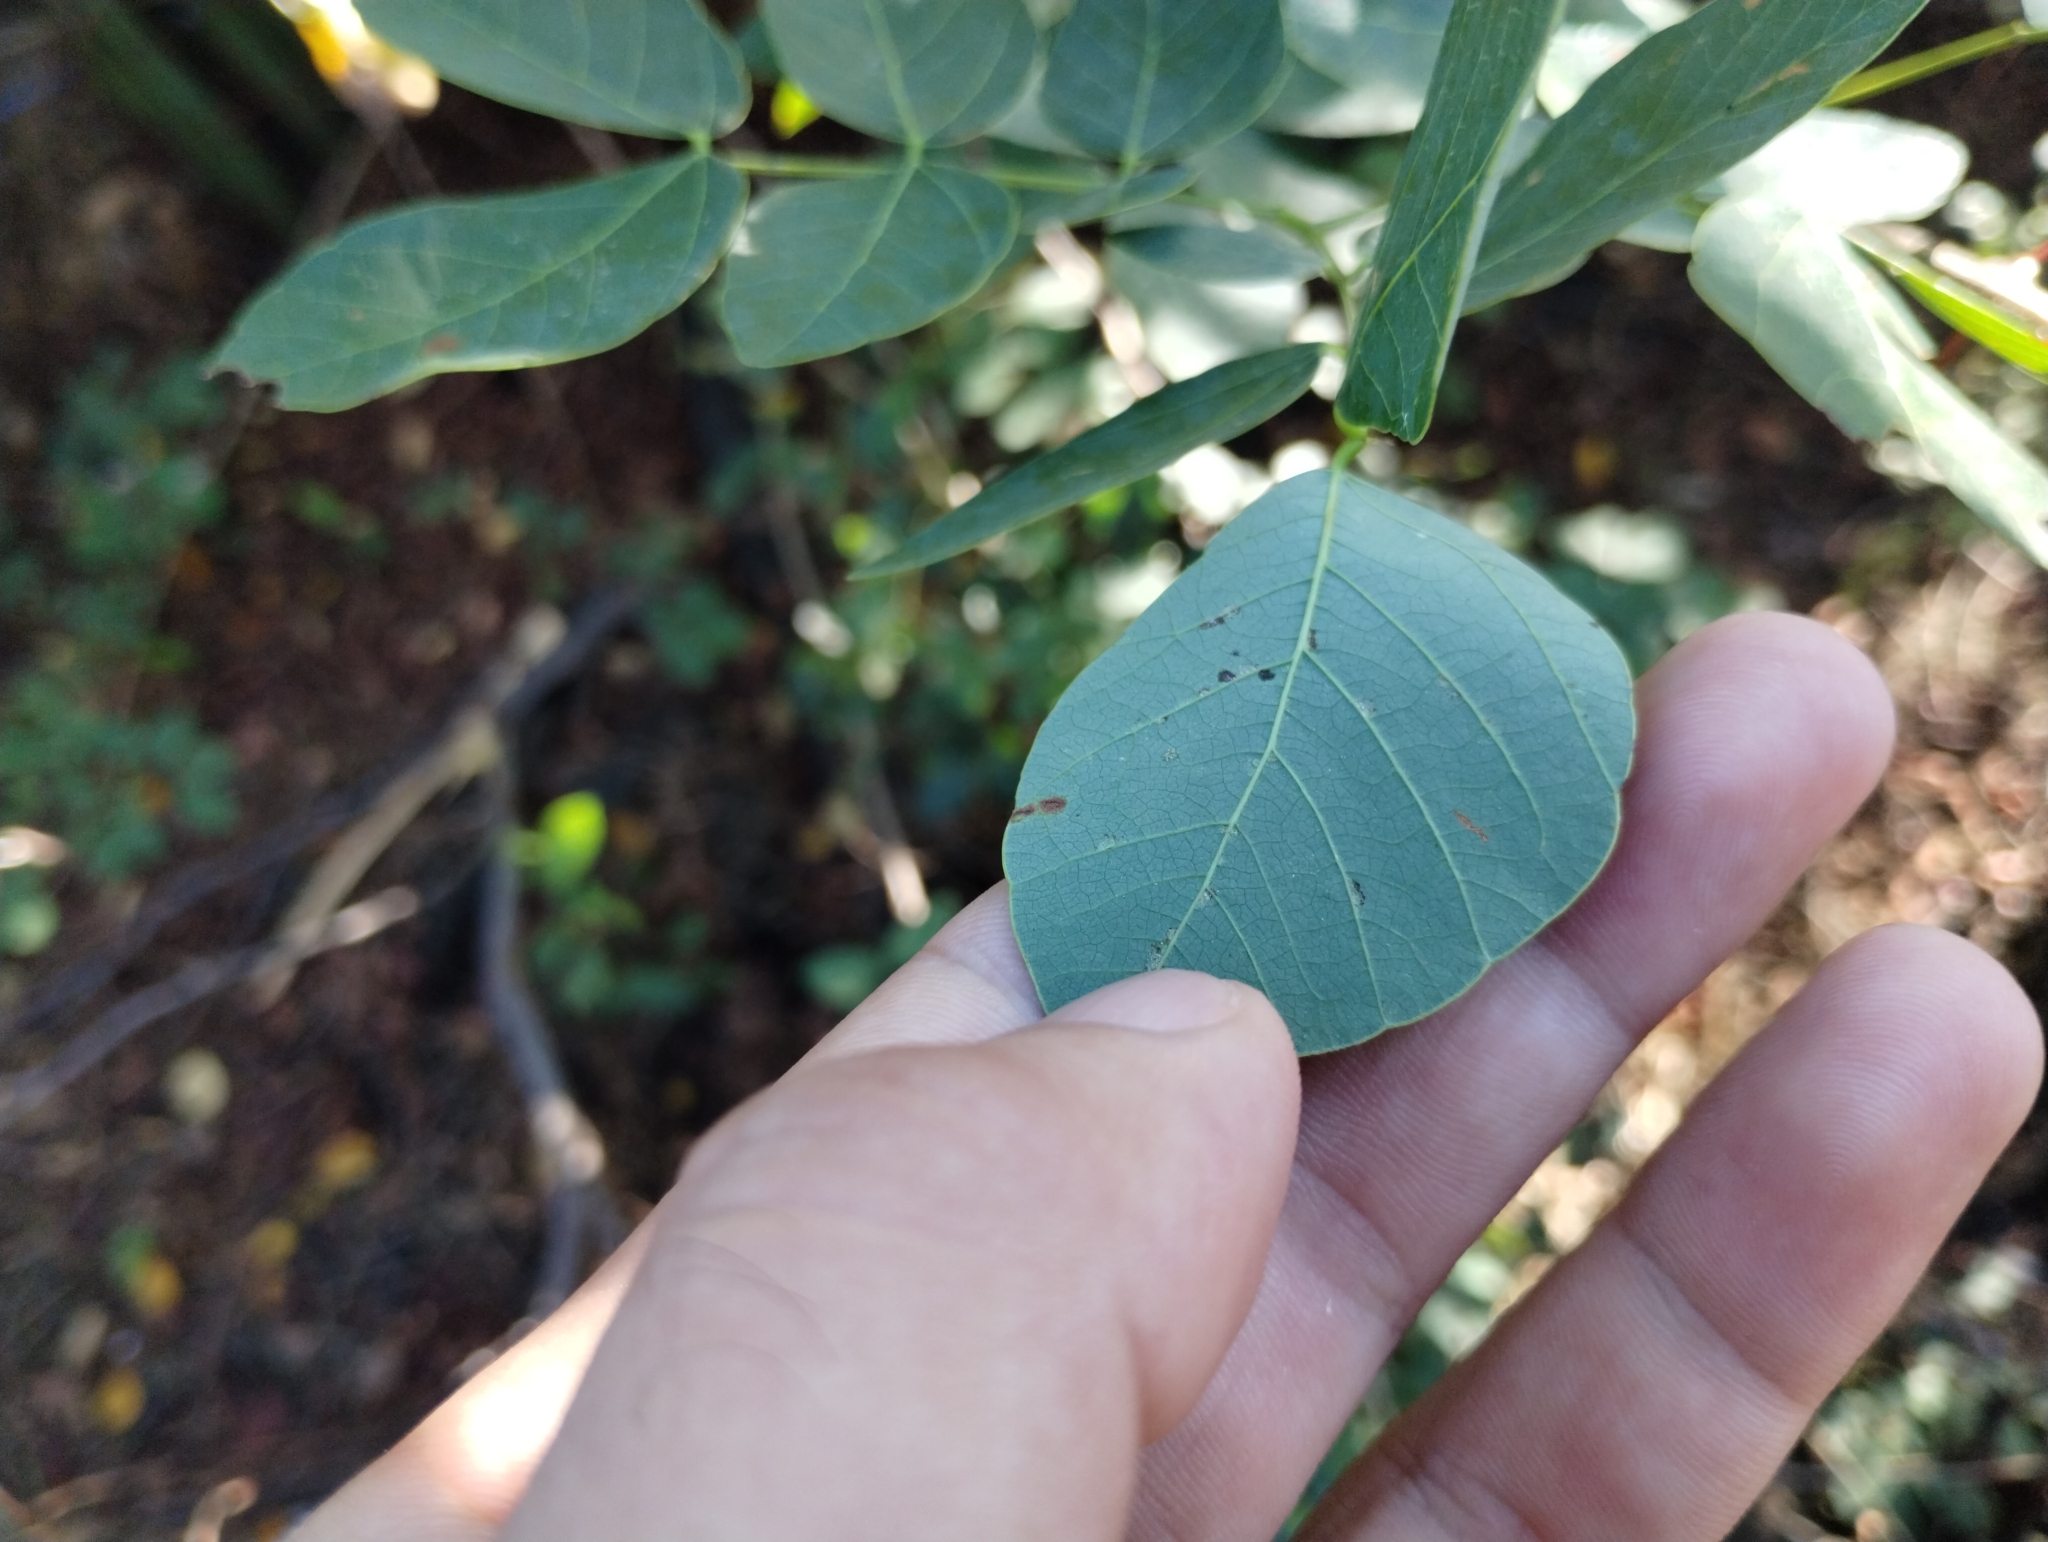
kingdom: Plantae
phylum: Tracheophyta
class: Magnoliopsida
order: Fabales
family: Fabaceae
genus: Mimosa
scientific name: Mimosa caesalpiniifolia
